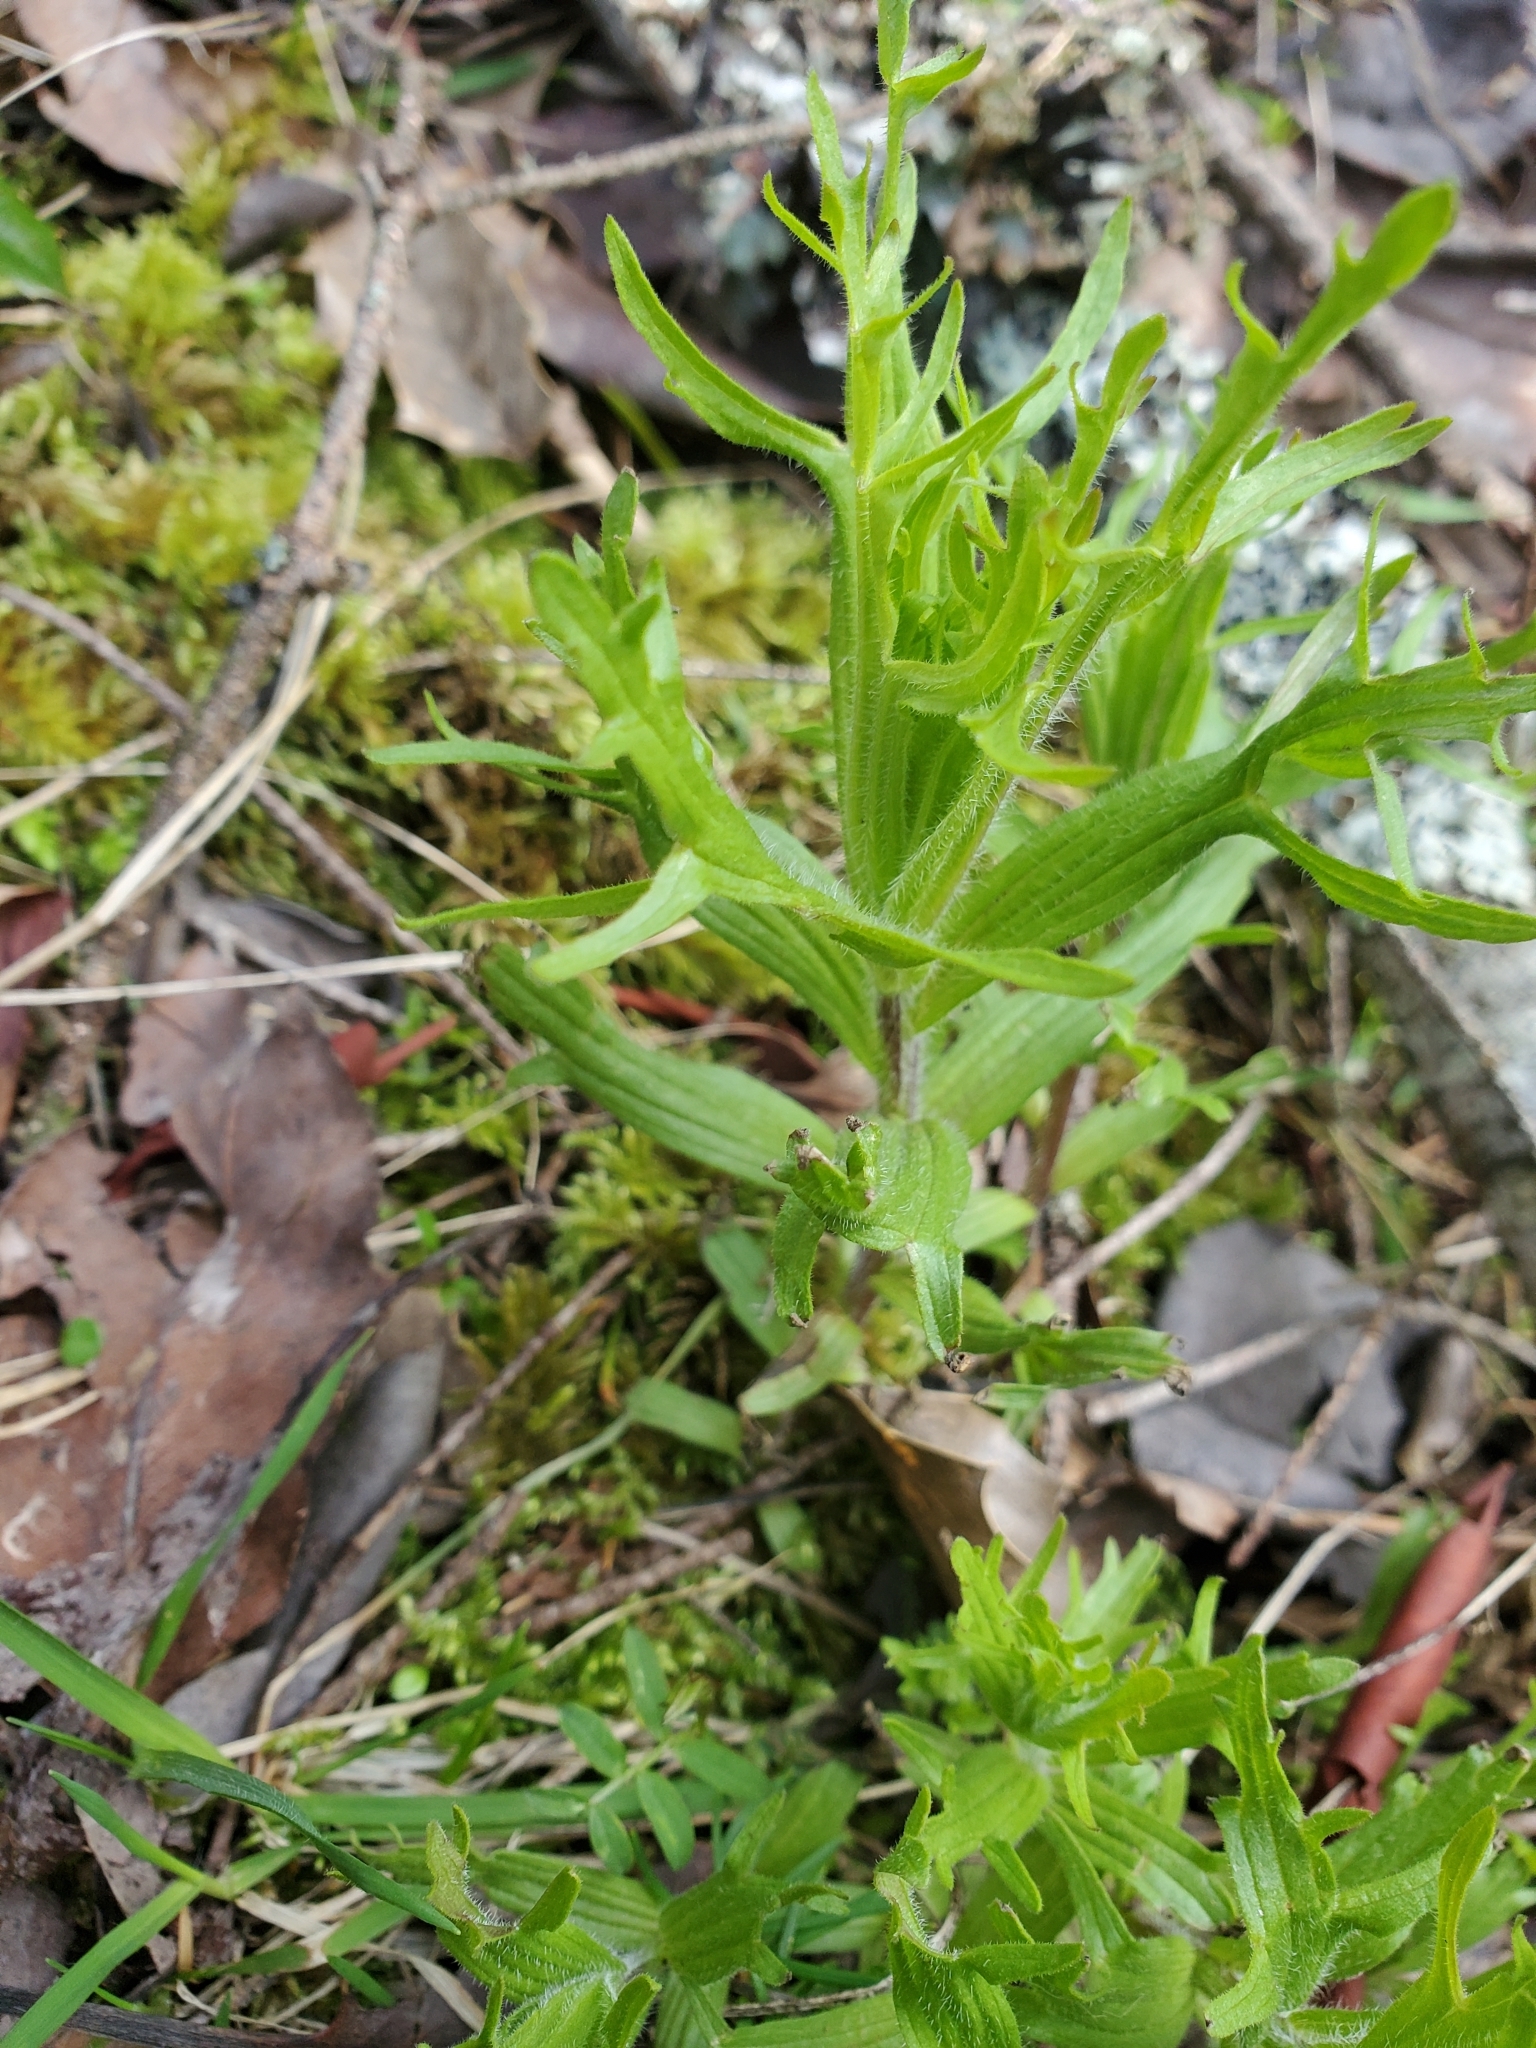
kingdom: Plantae
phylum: Tracheophyta
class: Magnoliopsida
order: Lamiales
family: Orobanchaceae
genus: Castilleja
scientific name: Castilleja hispida
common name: Bristly paintbrush
